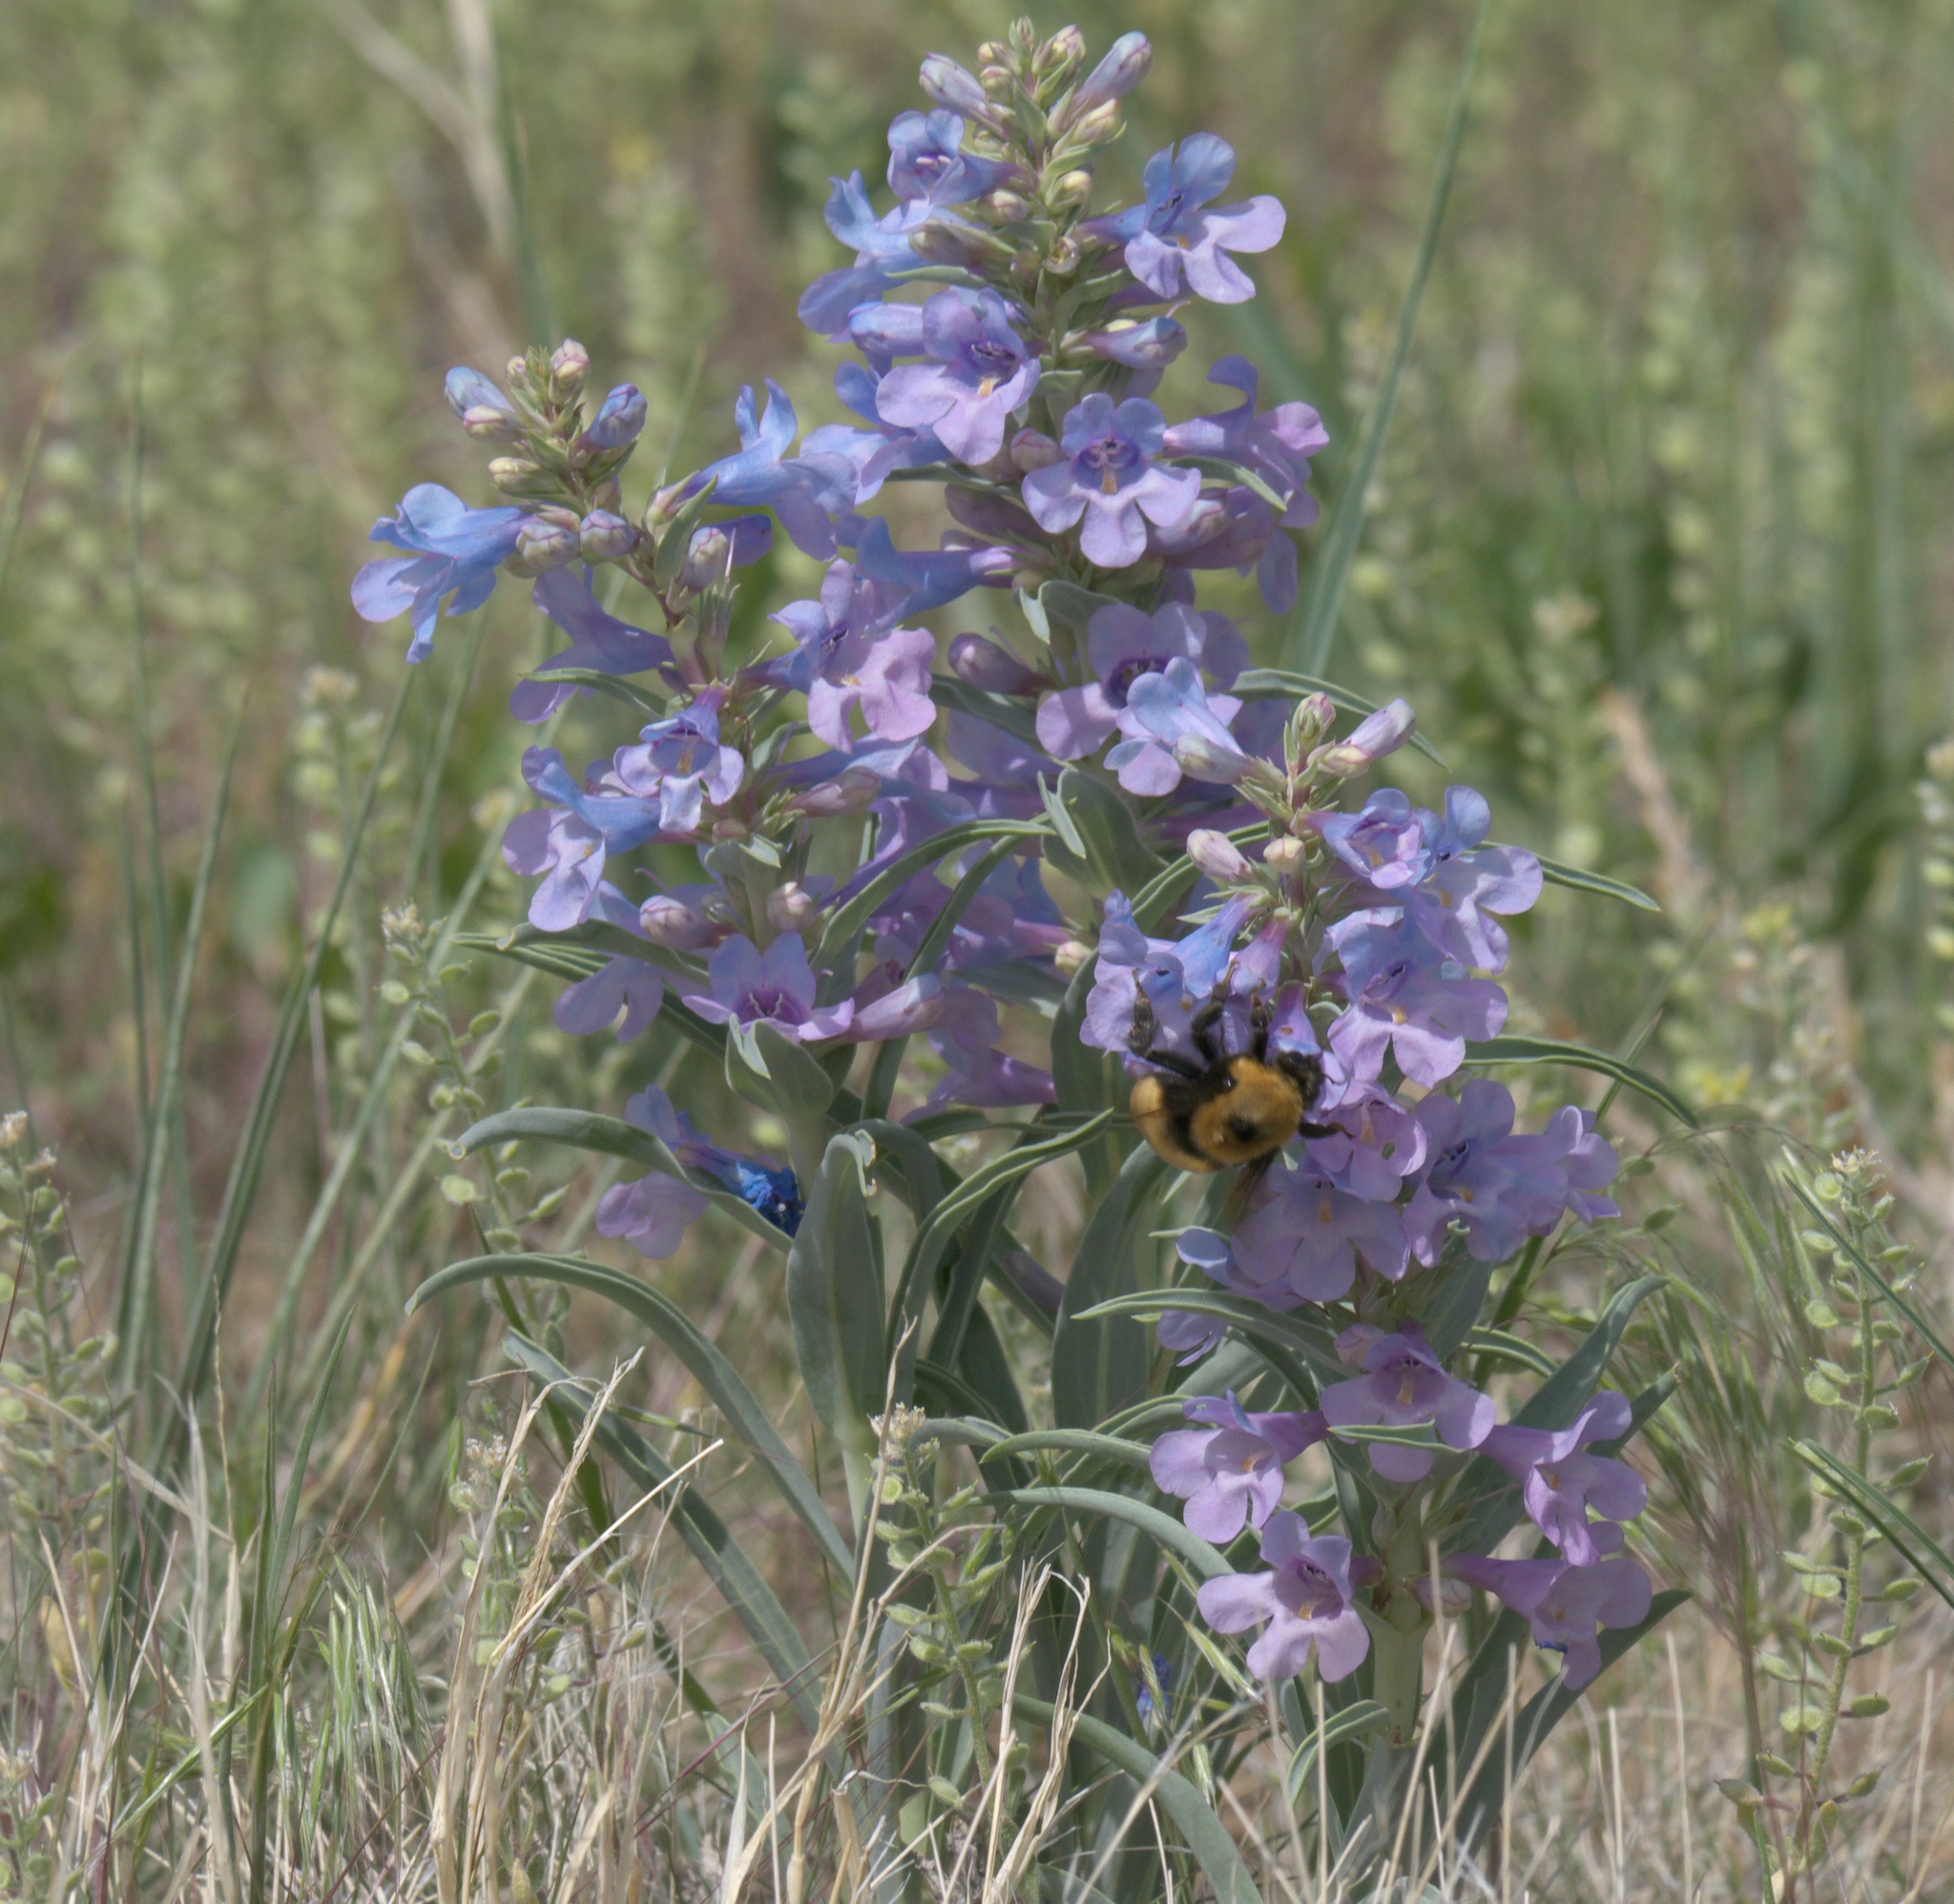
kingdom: Plantae
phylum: Tracheophyta
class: Magnoliopsida
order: Lamiales
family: Plantaginaceae
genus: Penstemon
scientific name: Penstemon angustifolius
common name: Narrow beardtongue
